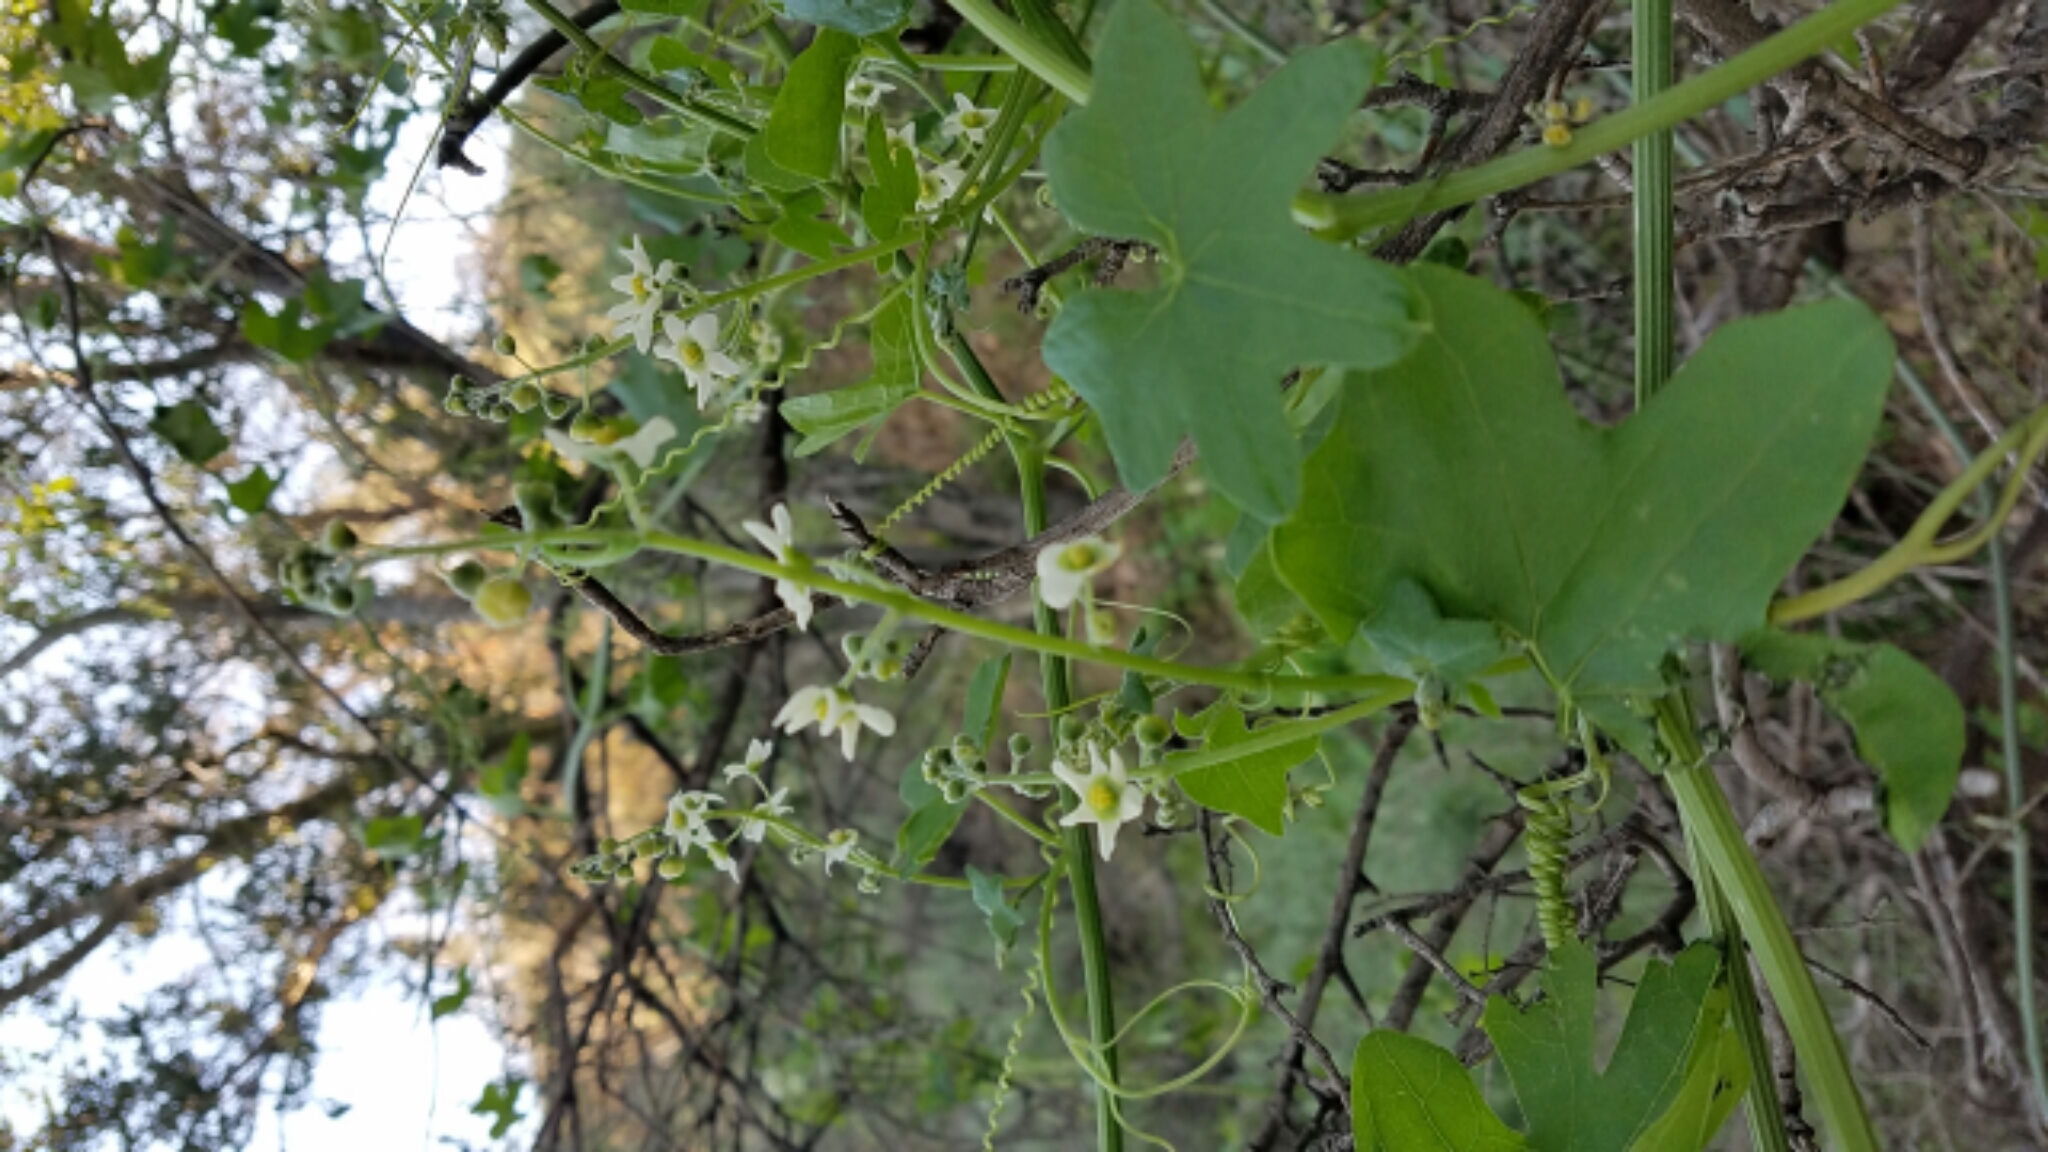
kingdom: Plantae
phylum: Tracheophyta
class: Magnoliopsida
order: Cucurbitales
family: Cucurbitaceae
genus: Marah
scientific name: Marah macrocarpa
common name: Cucamonga manroot
